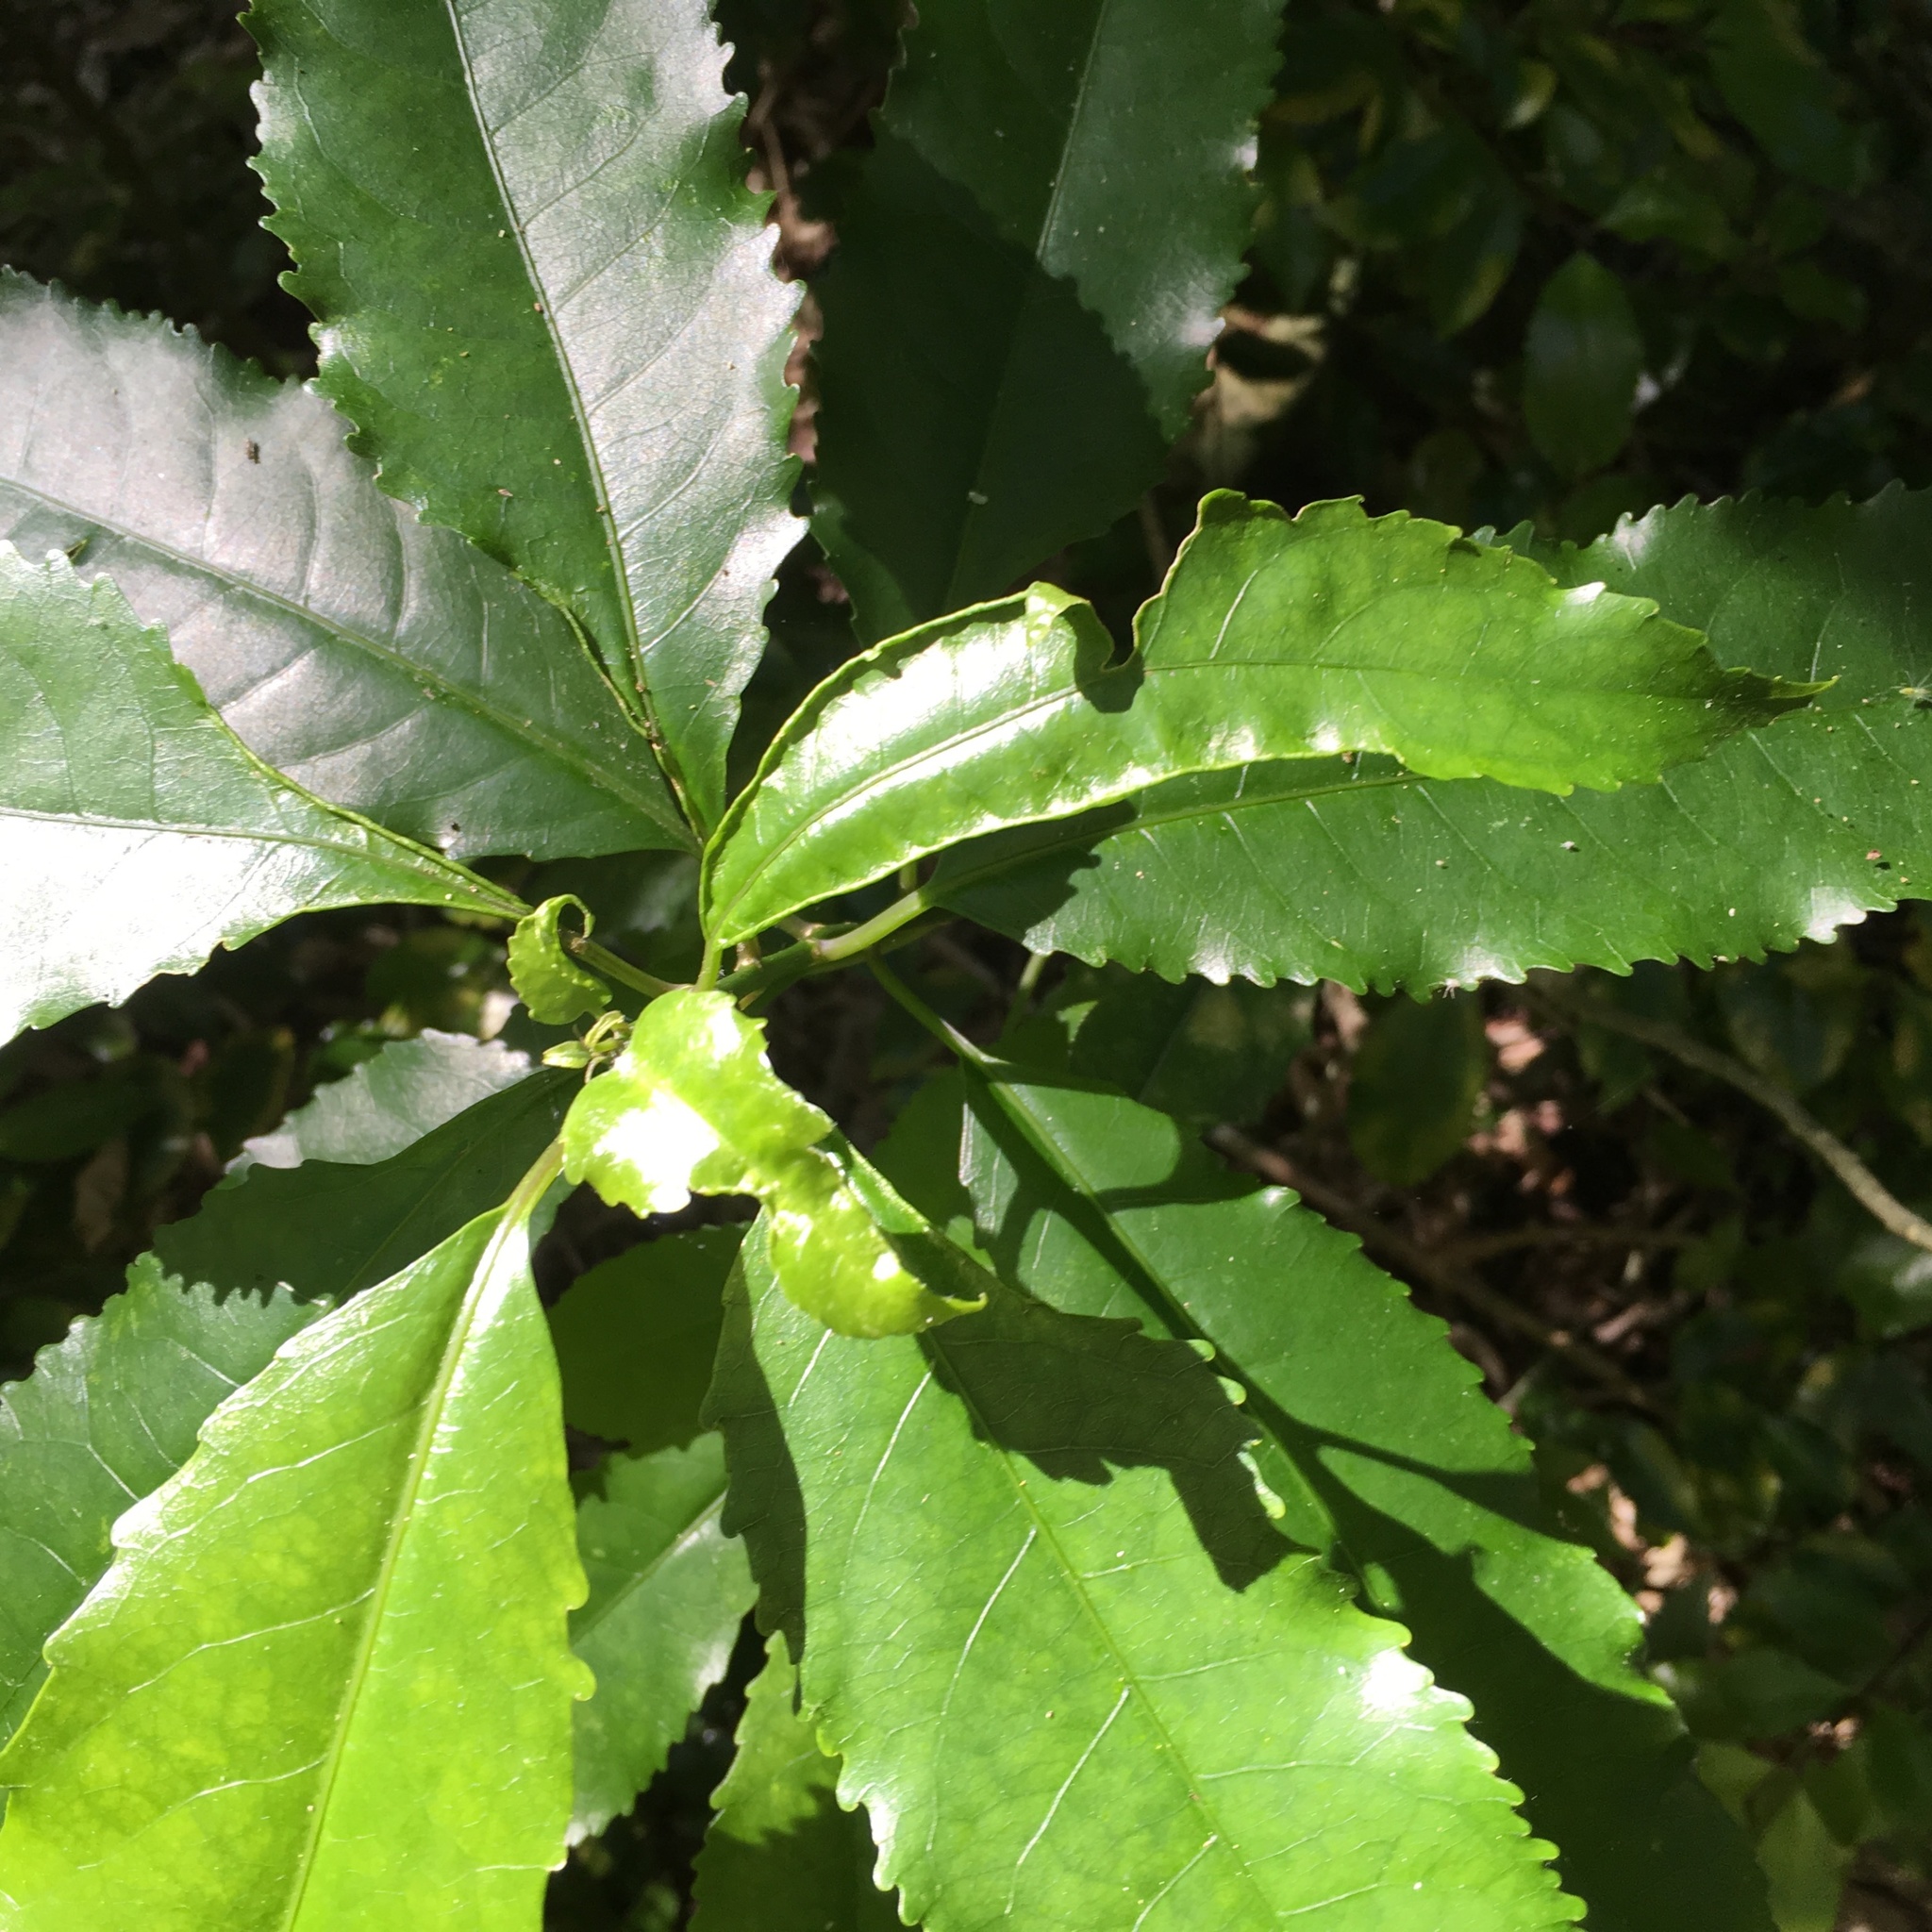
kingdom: Animalia
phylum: Arthropoda
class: Arachnida
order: Trombidiformes
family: Eriophyidae
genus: Aceria
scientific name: Aceria
